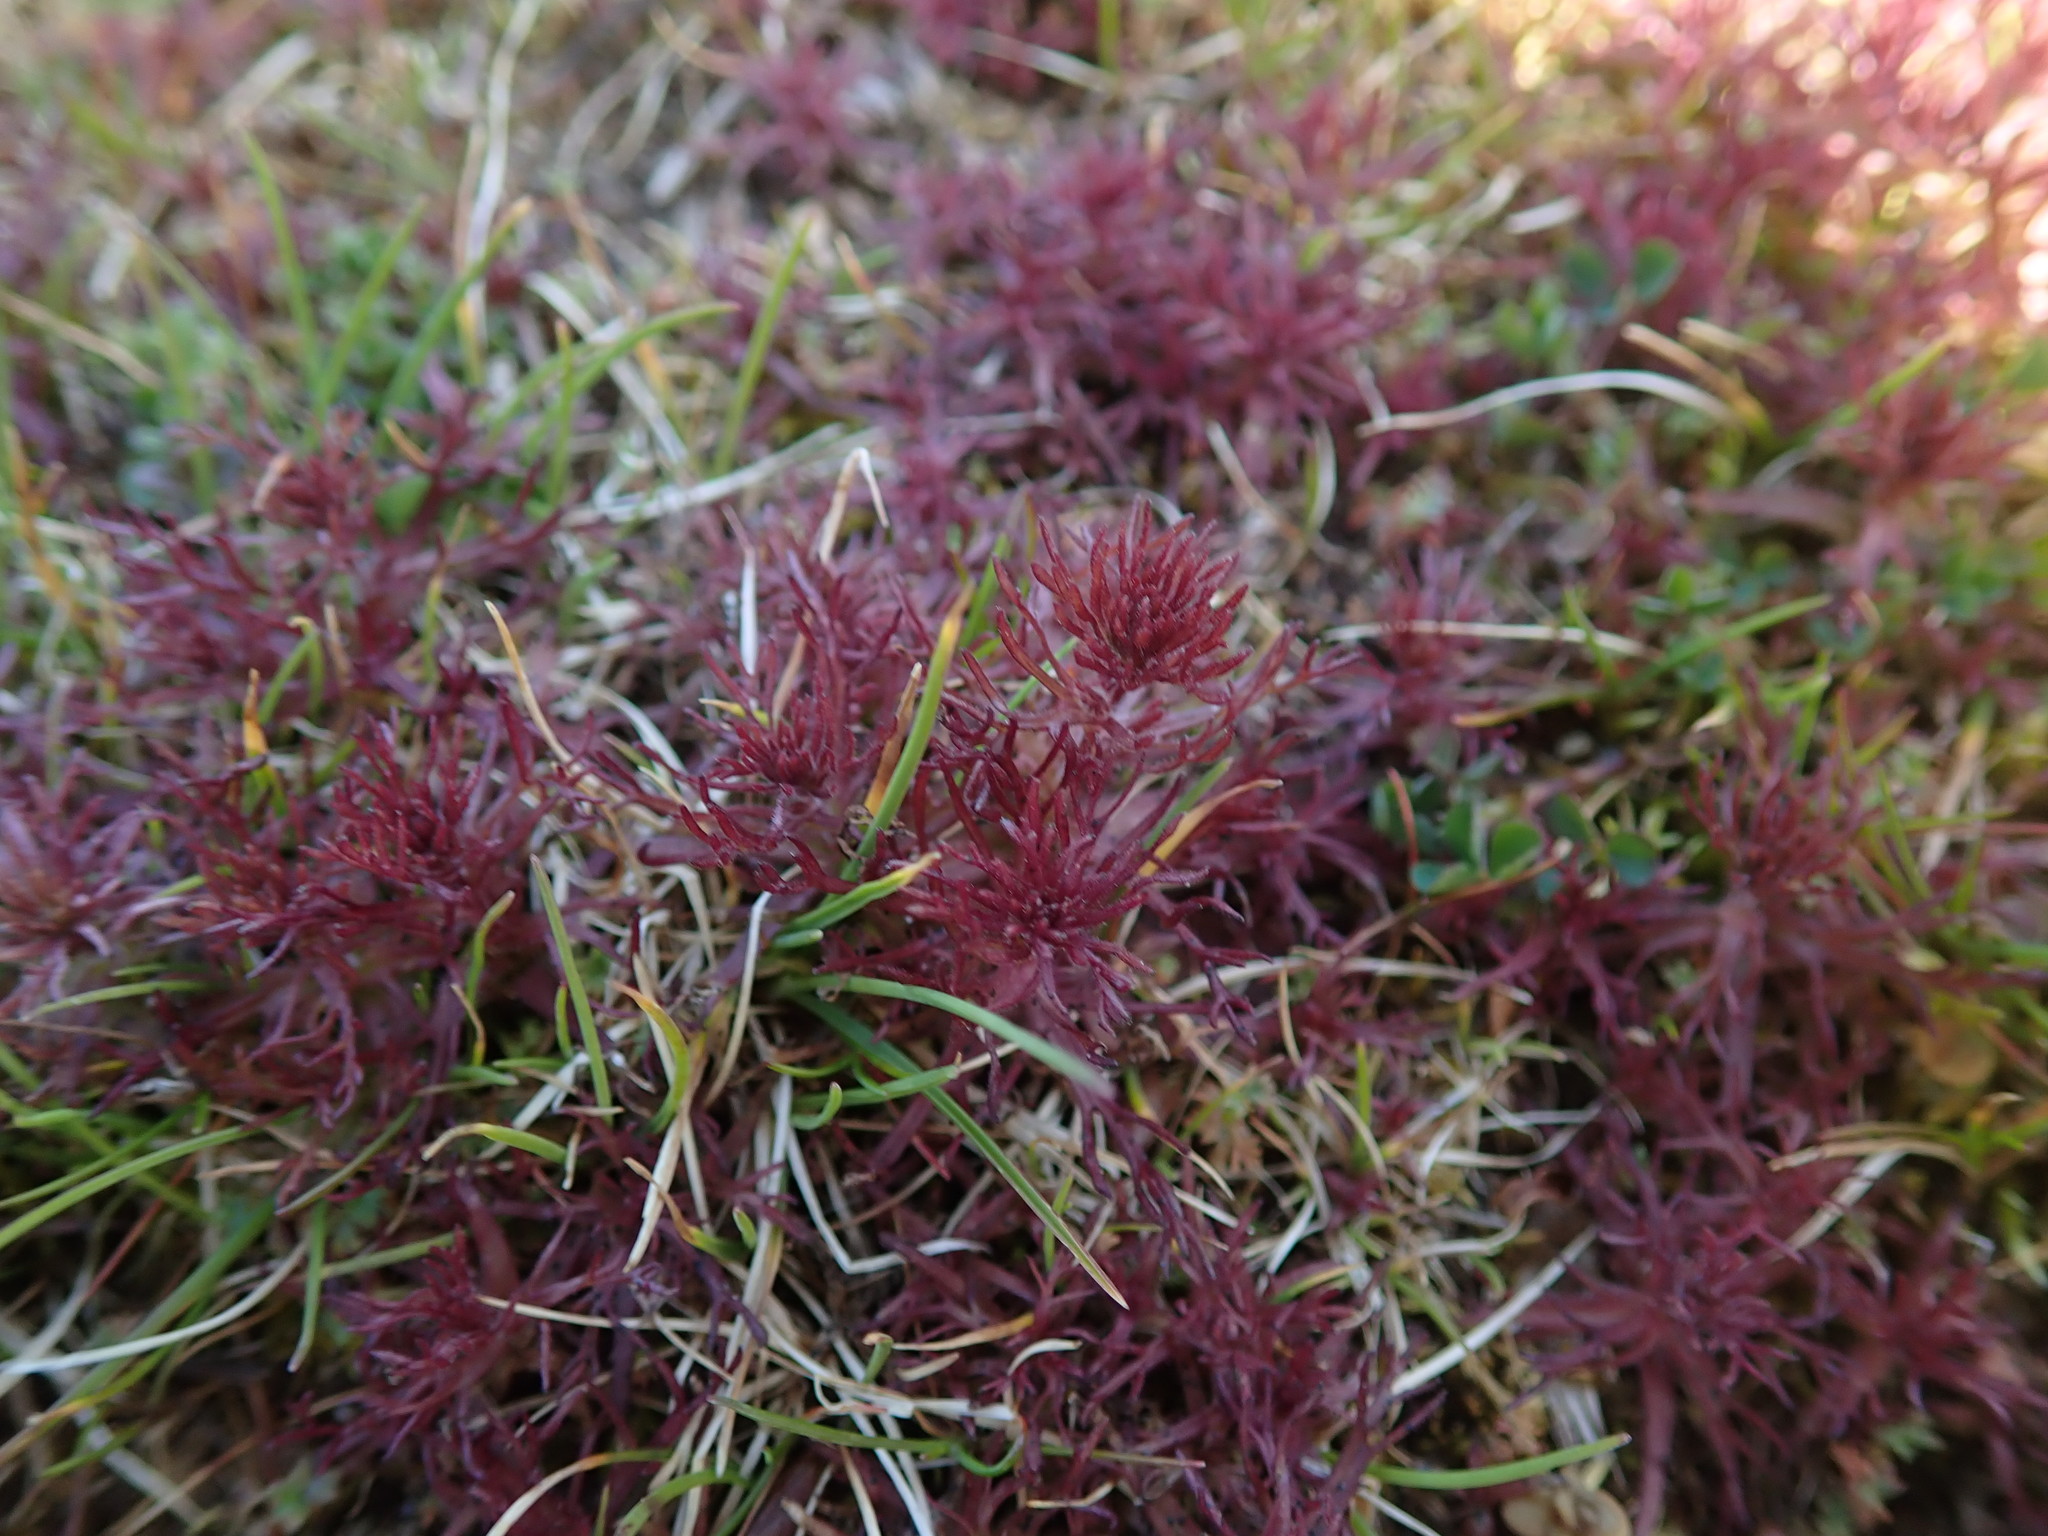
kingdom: Plantae
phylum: Tracheophyta
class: Magnoliopsida
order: Lamiales
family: Orobanchaceae
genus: Triphysaria
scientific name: Triphysaria pusilla
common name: Dwarf false owl-clover
